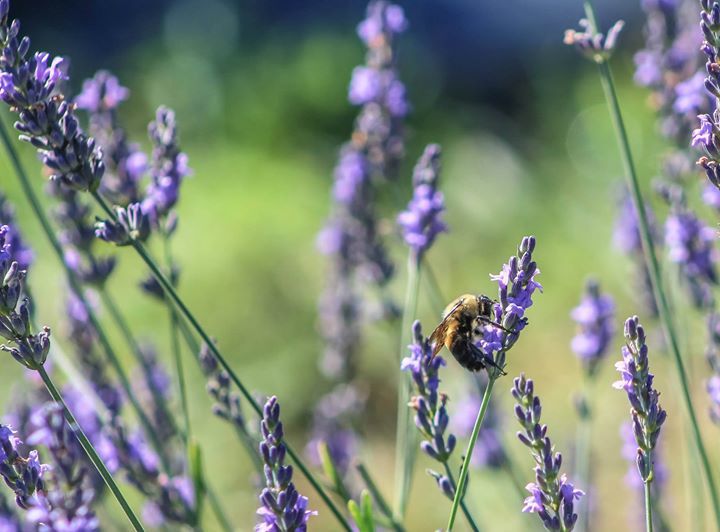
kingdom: Animalia
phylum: Arthropoda
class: Insecta
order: Hymenoptera
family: Apidae
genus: Bombus
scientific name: Bombus griseocollis
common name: Brown-belted bumble bee
